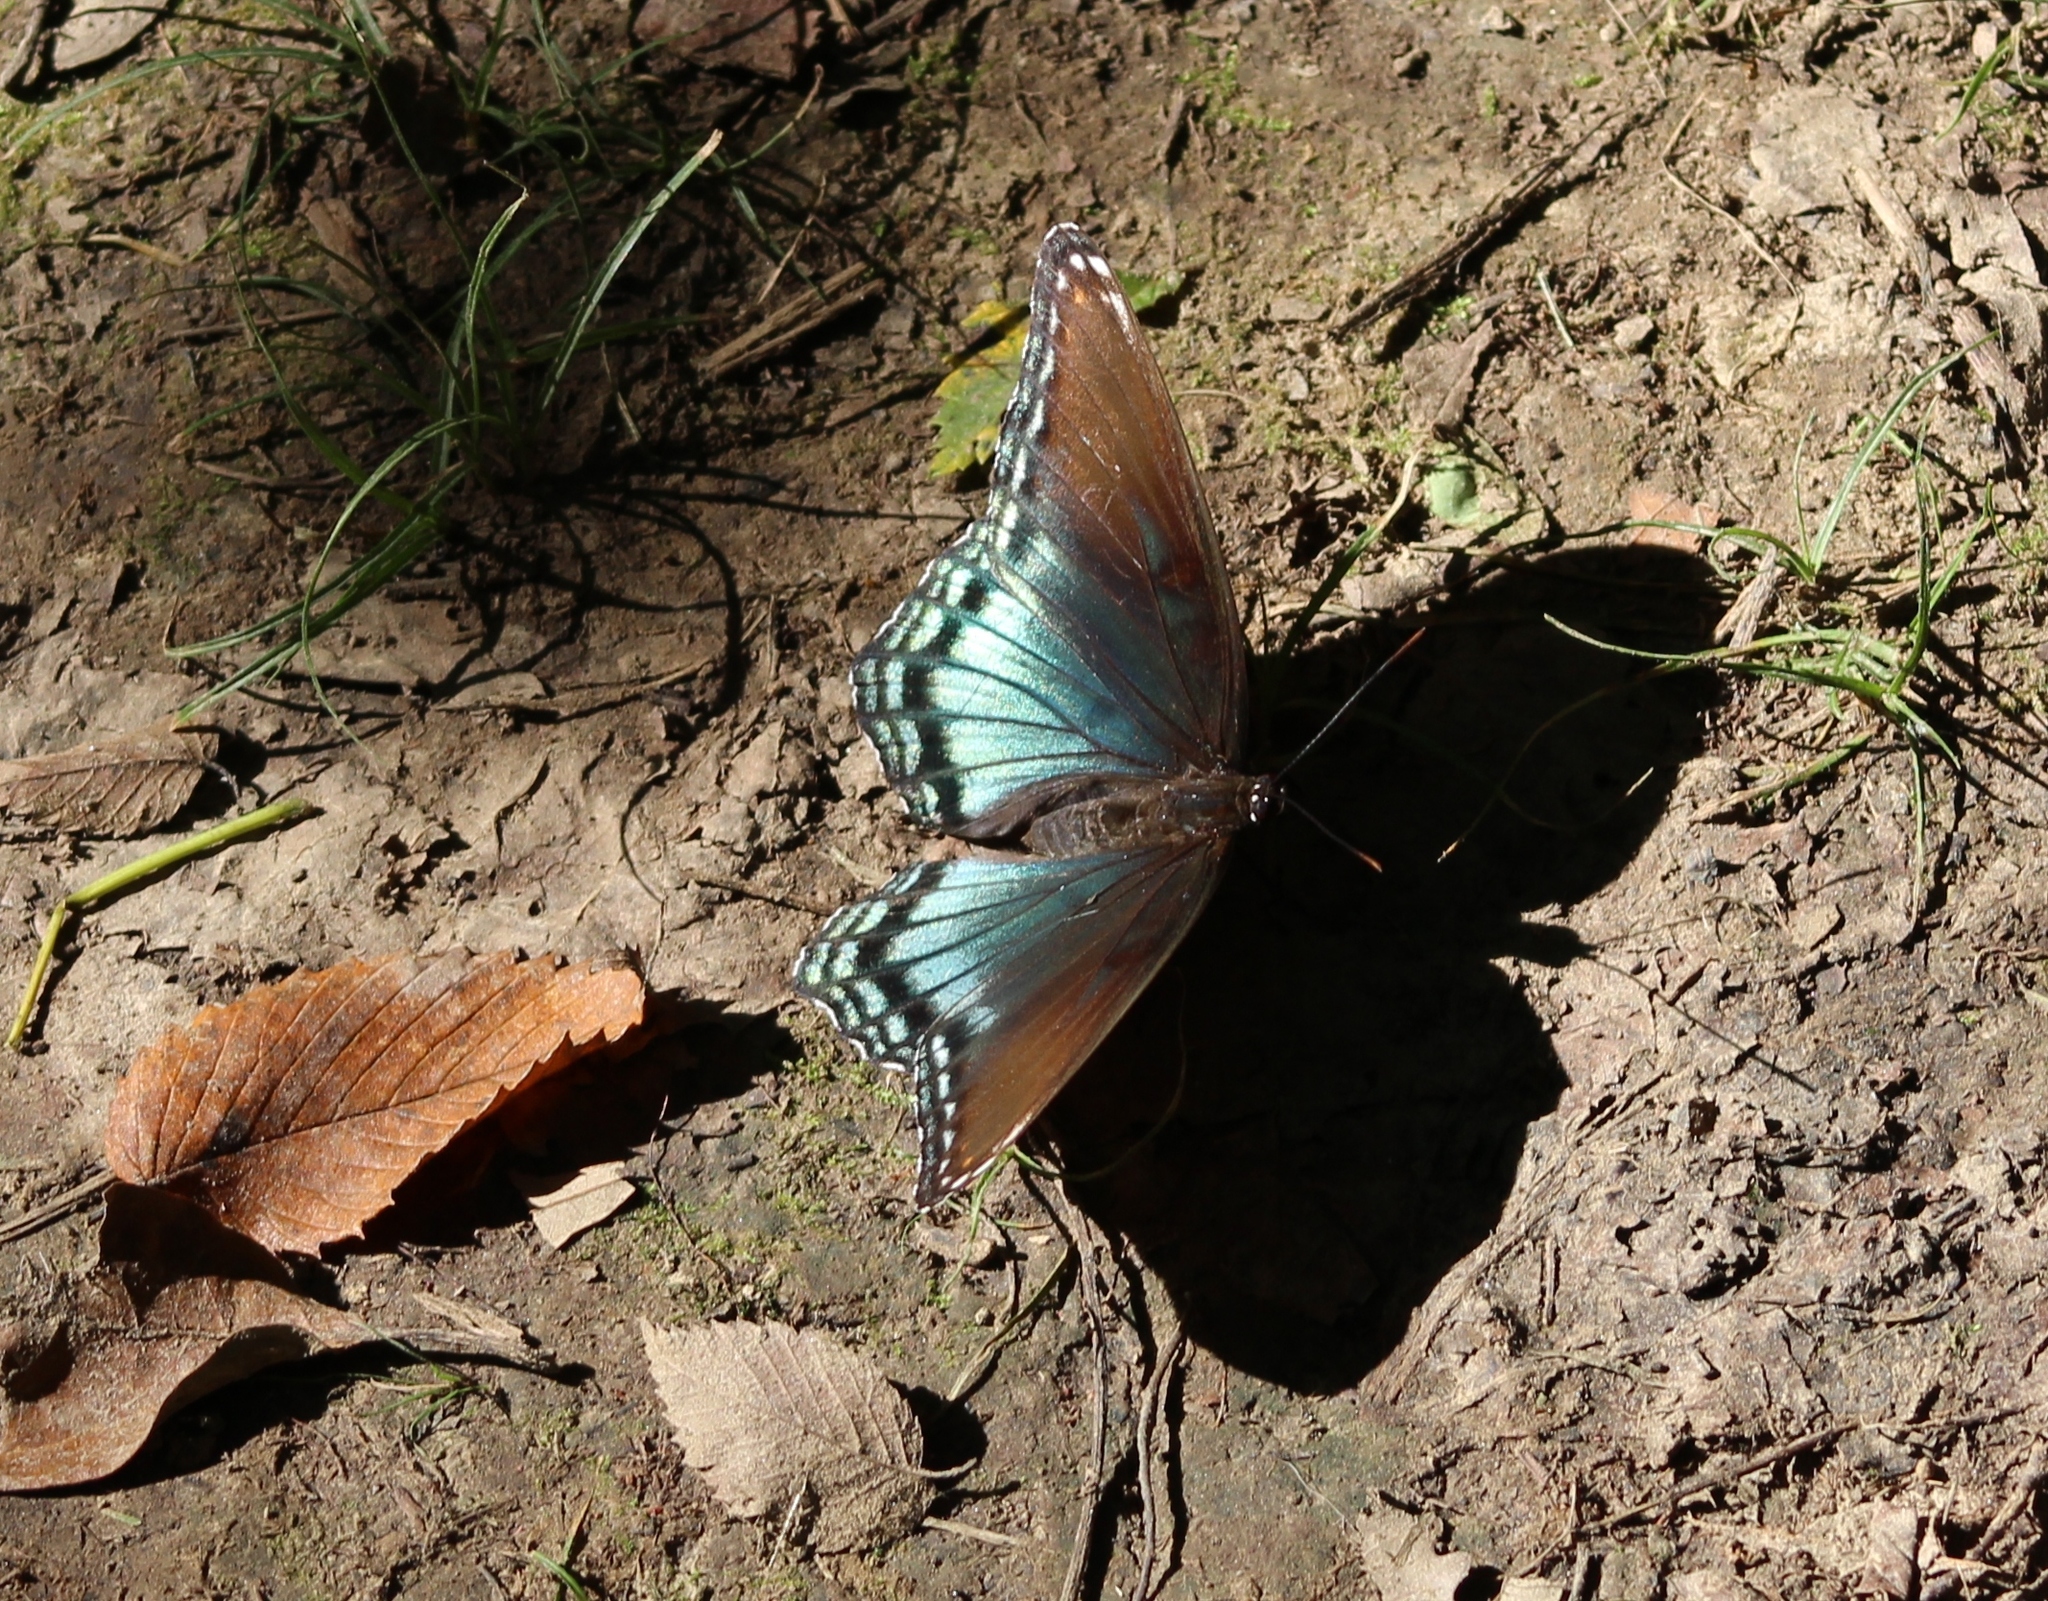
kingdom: Animalia
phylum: Arthropoda
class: Insecta
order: Lepidoptera
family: Nymphalidae
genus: Limenitis
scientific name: Limenitis arthemis
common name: Red-spotted admiral
